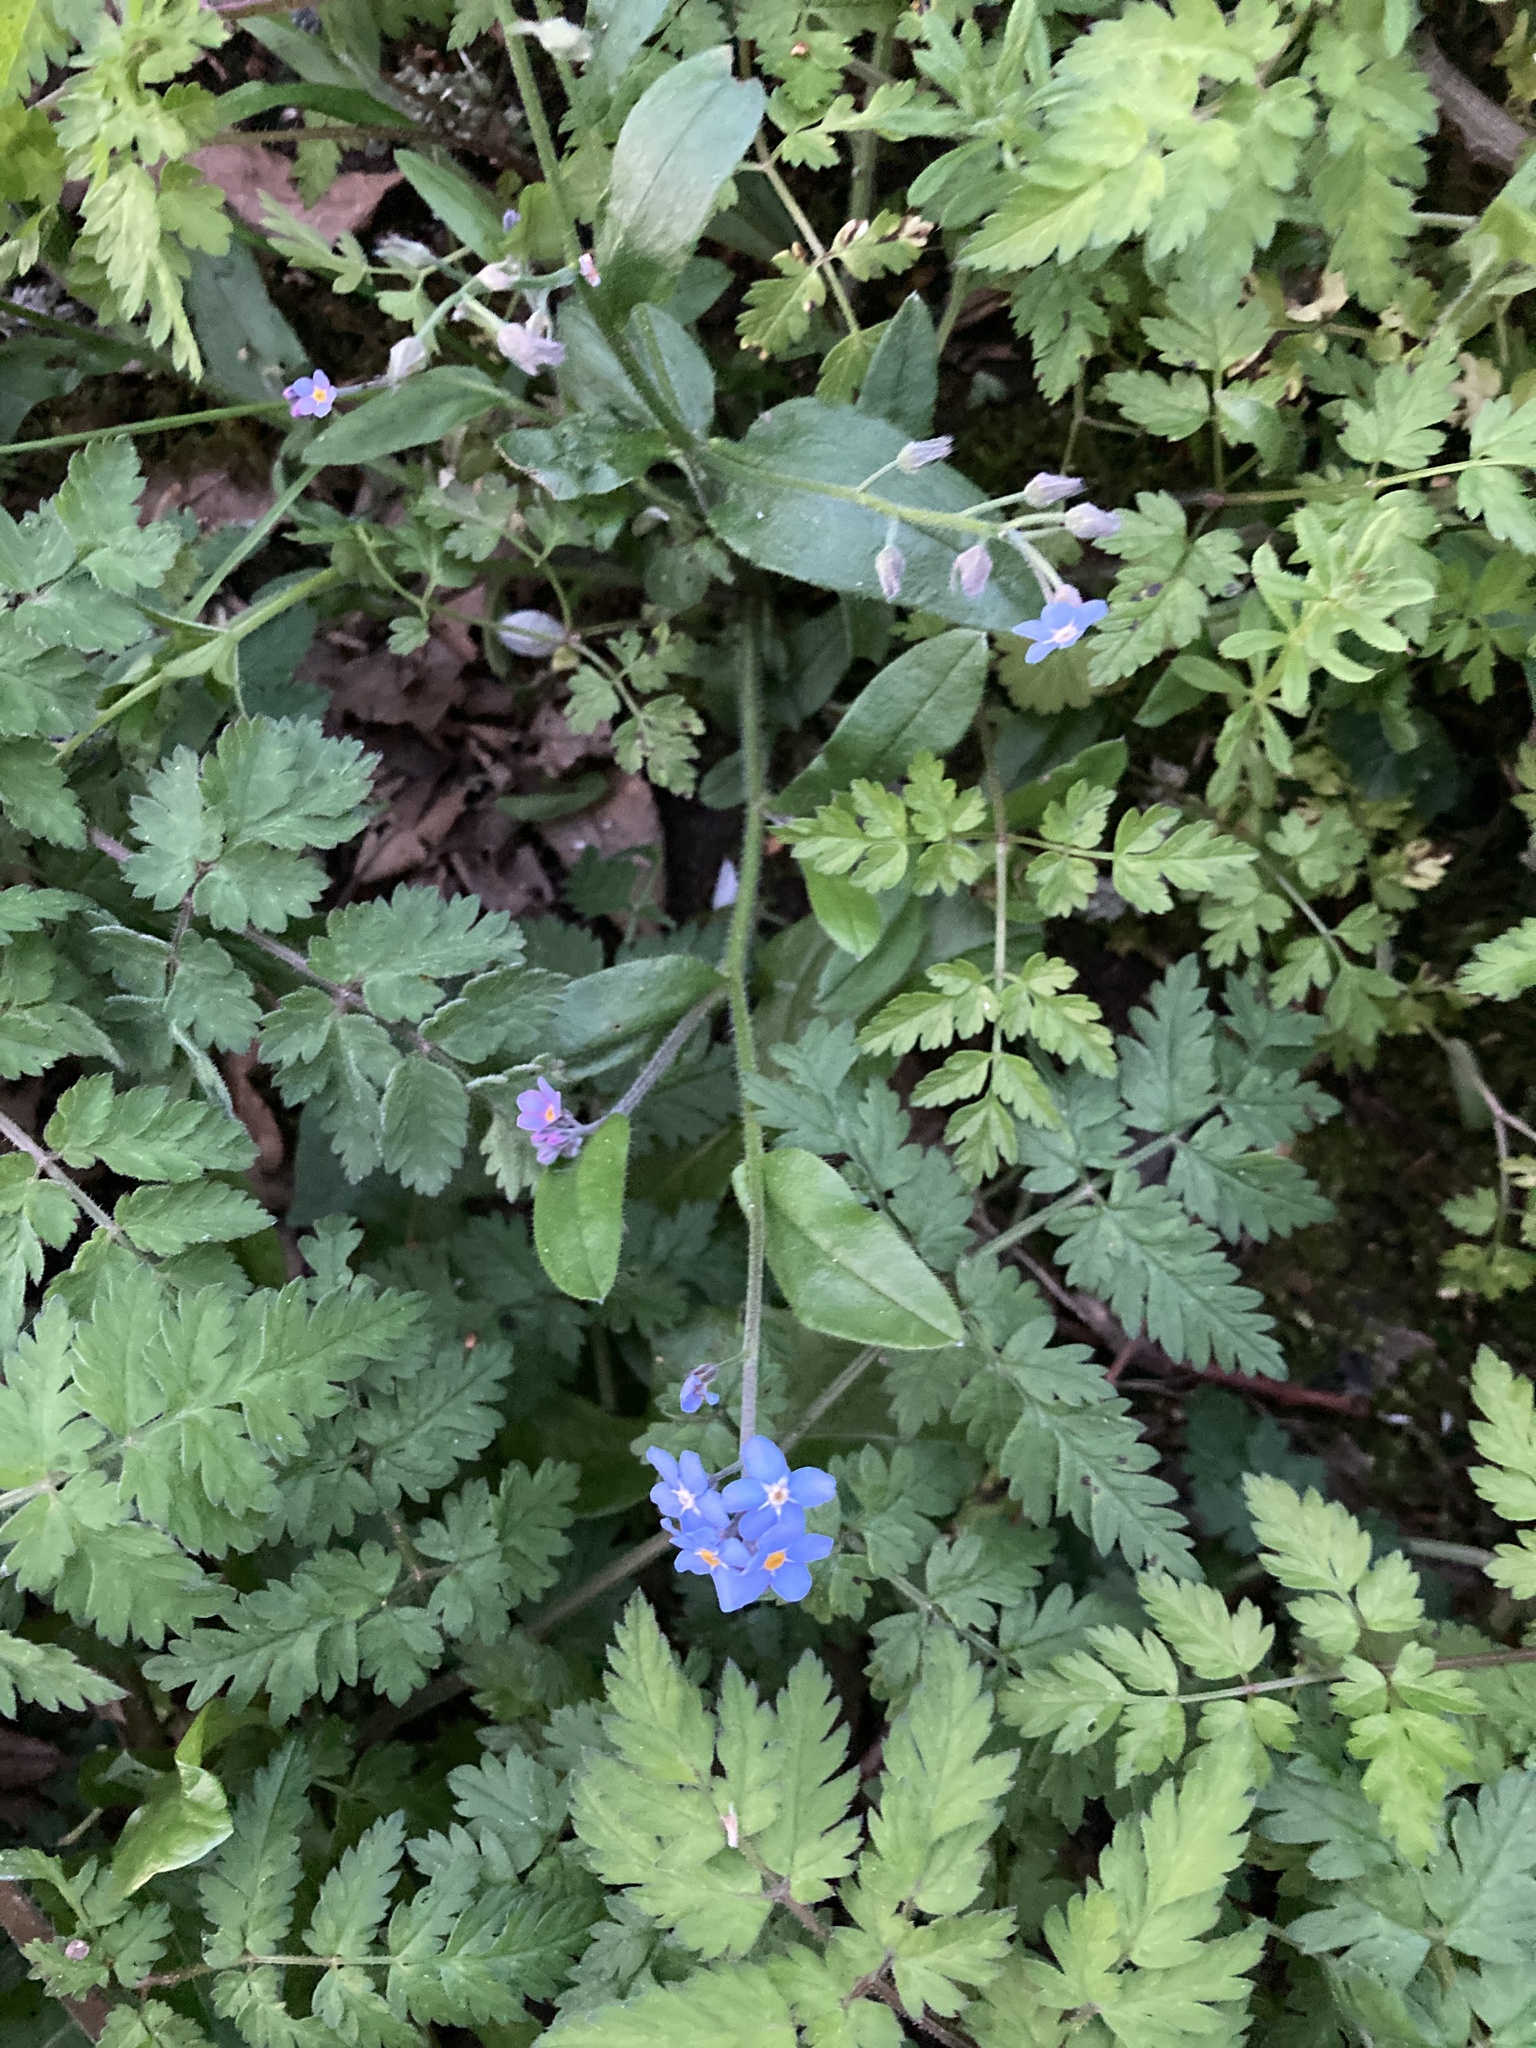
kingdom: Plantae
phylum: Tracheophyta
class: Magnoliopsida
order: Boraginales
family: Boraginaceae
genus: Myosotis
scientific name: Myosotis sylvatica
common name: Wood forget-me-not
